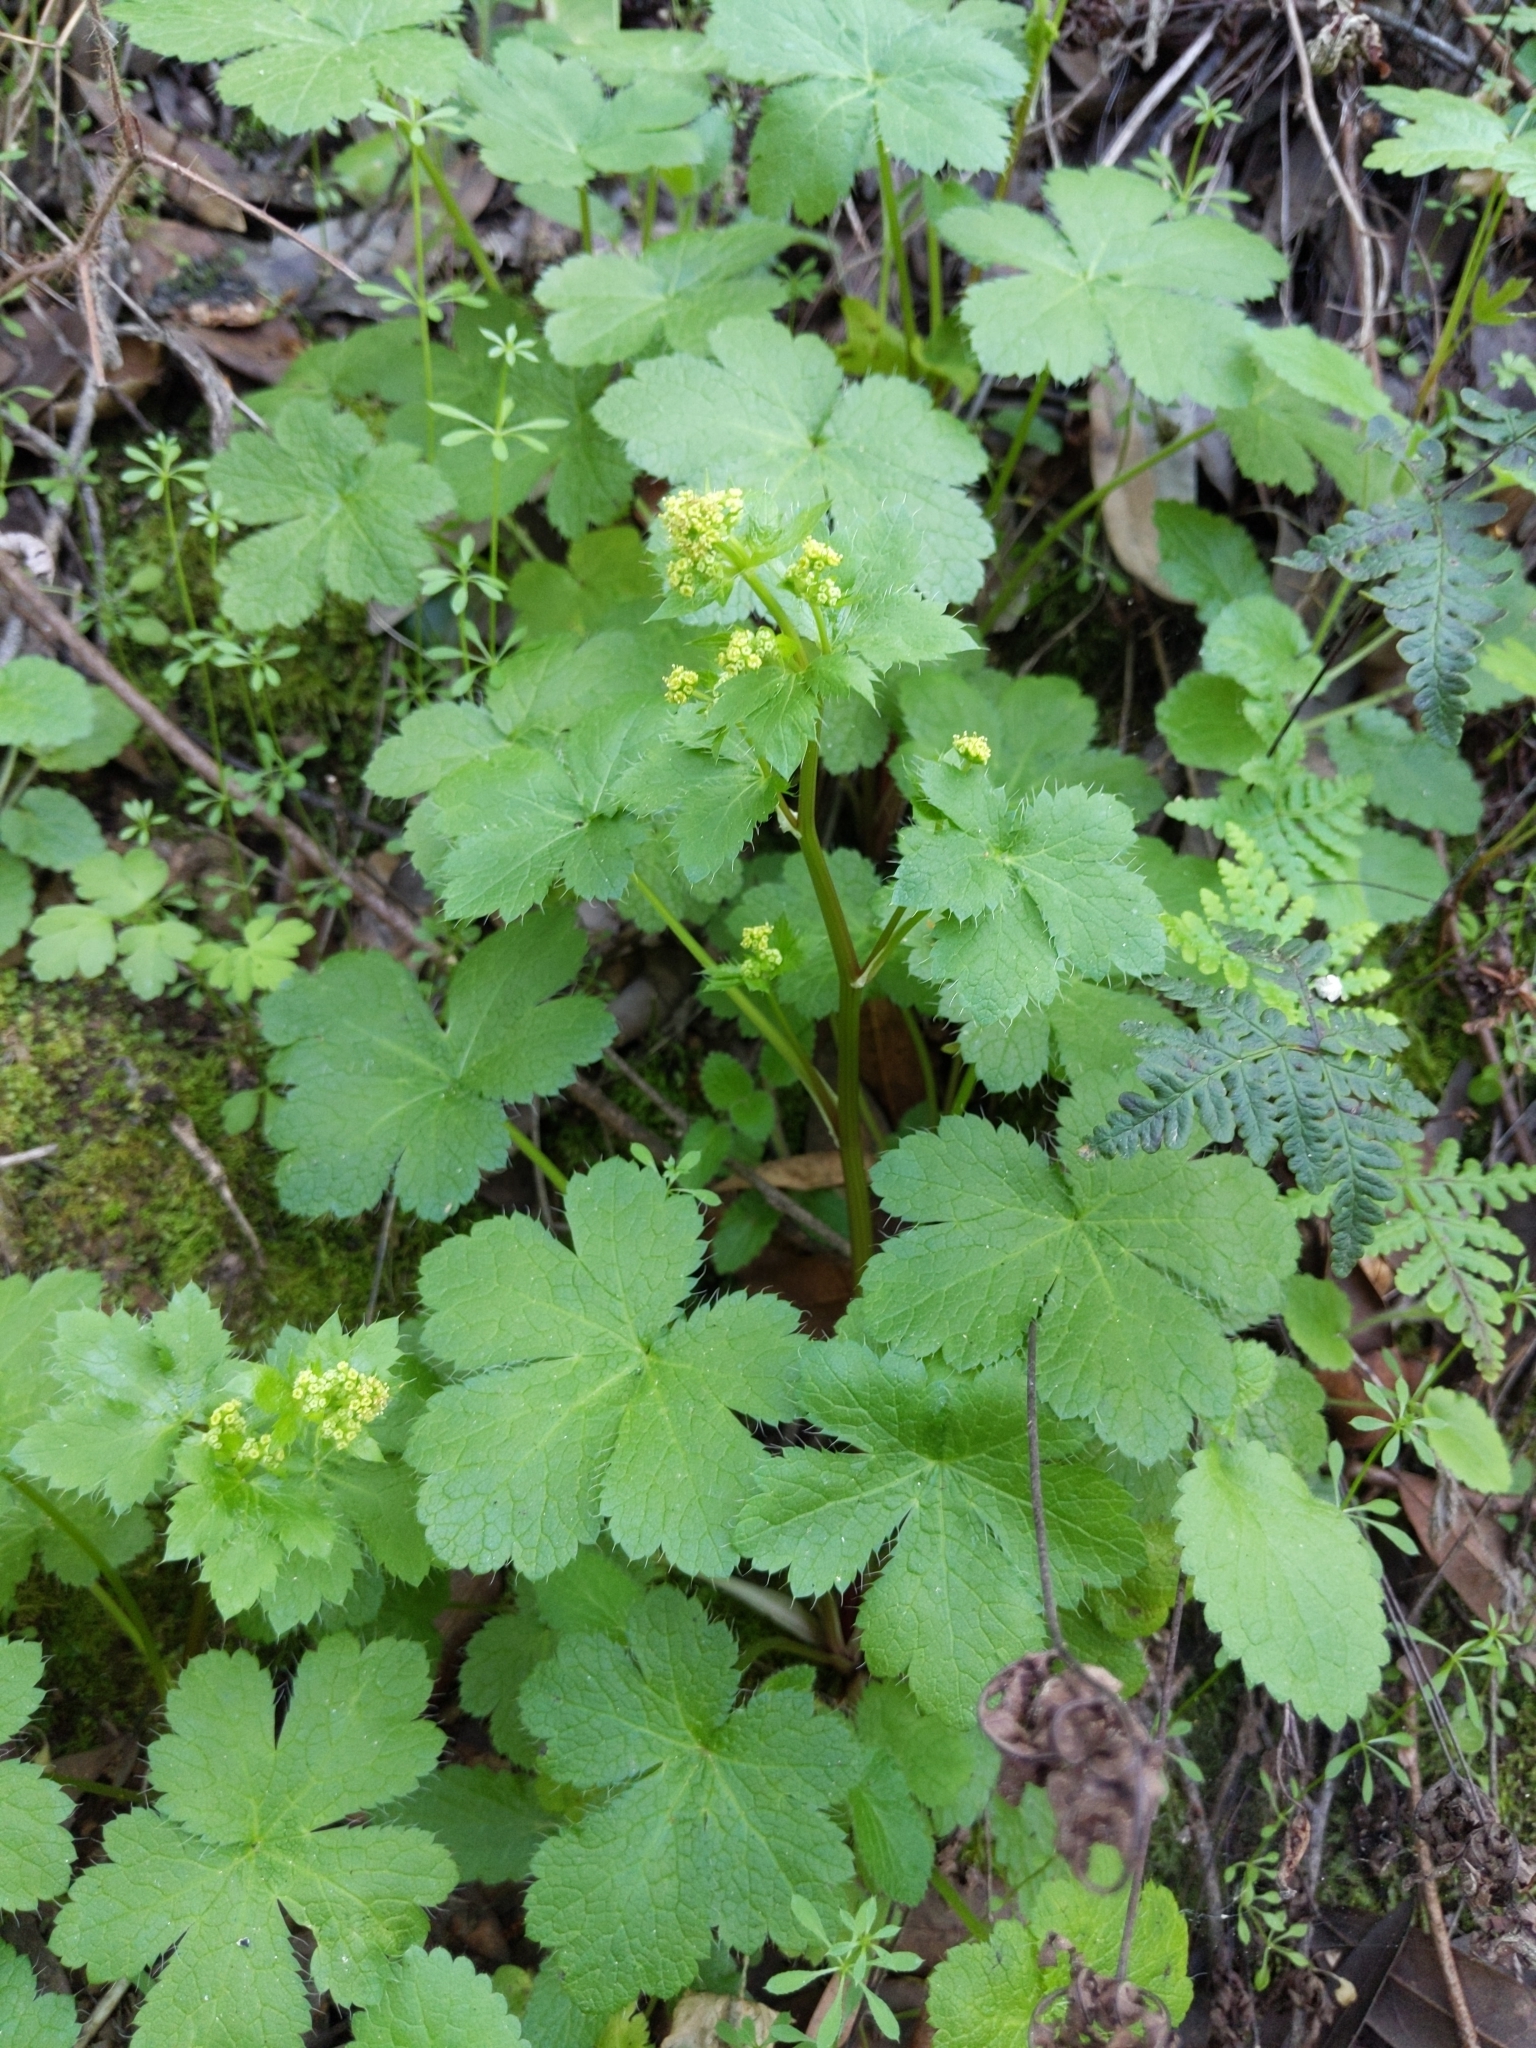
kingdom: Plantae
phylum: Tracheophyta
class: Magnoliopsida
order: Apiales
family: Apiaceae
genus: Sanicula
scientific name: Sanicula crassicaulis
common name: Western snakeroot
